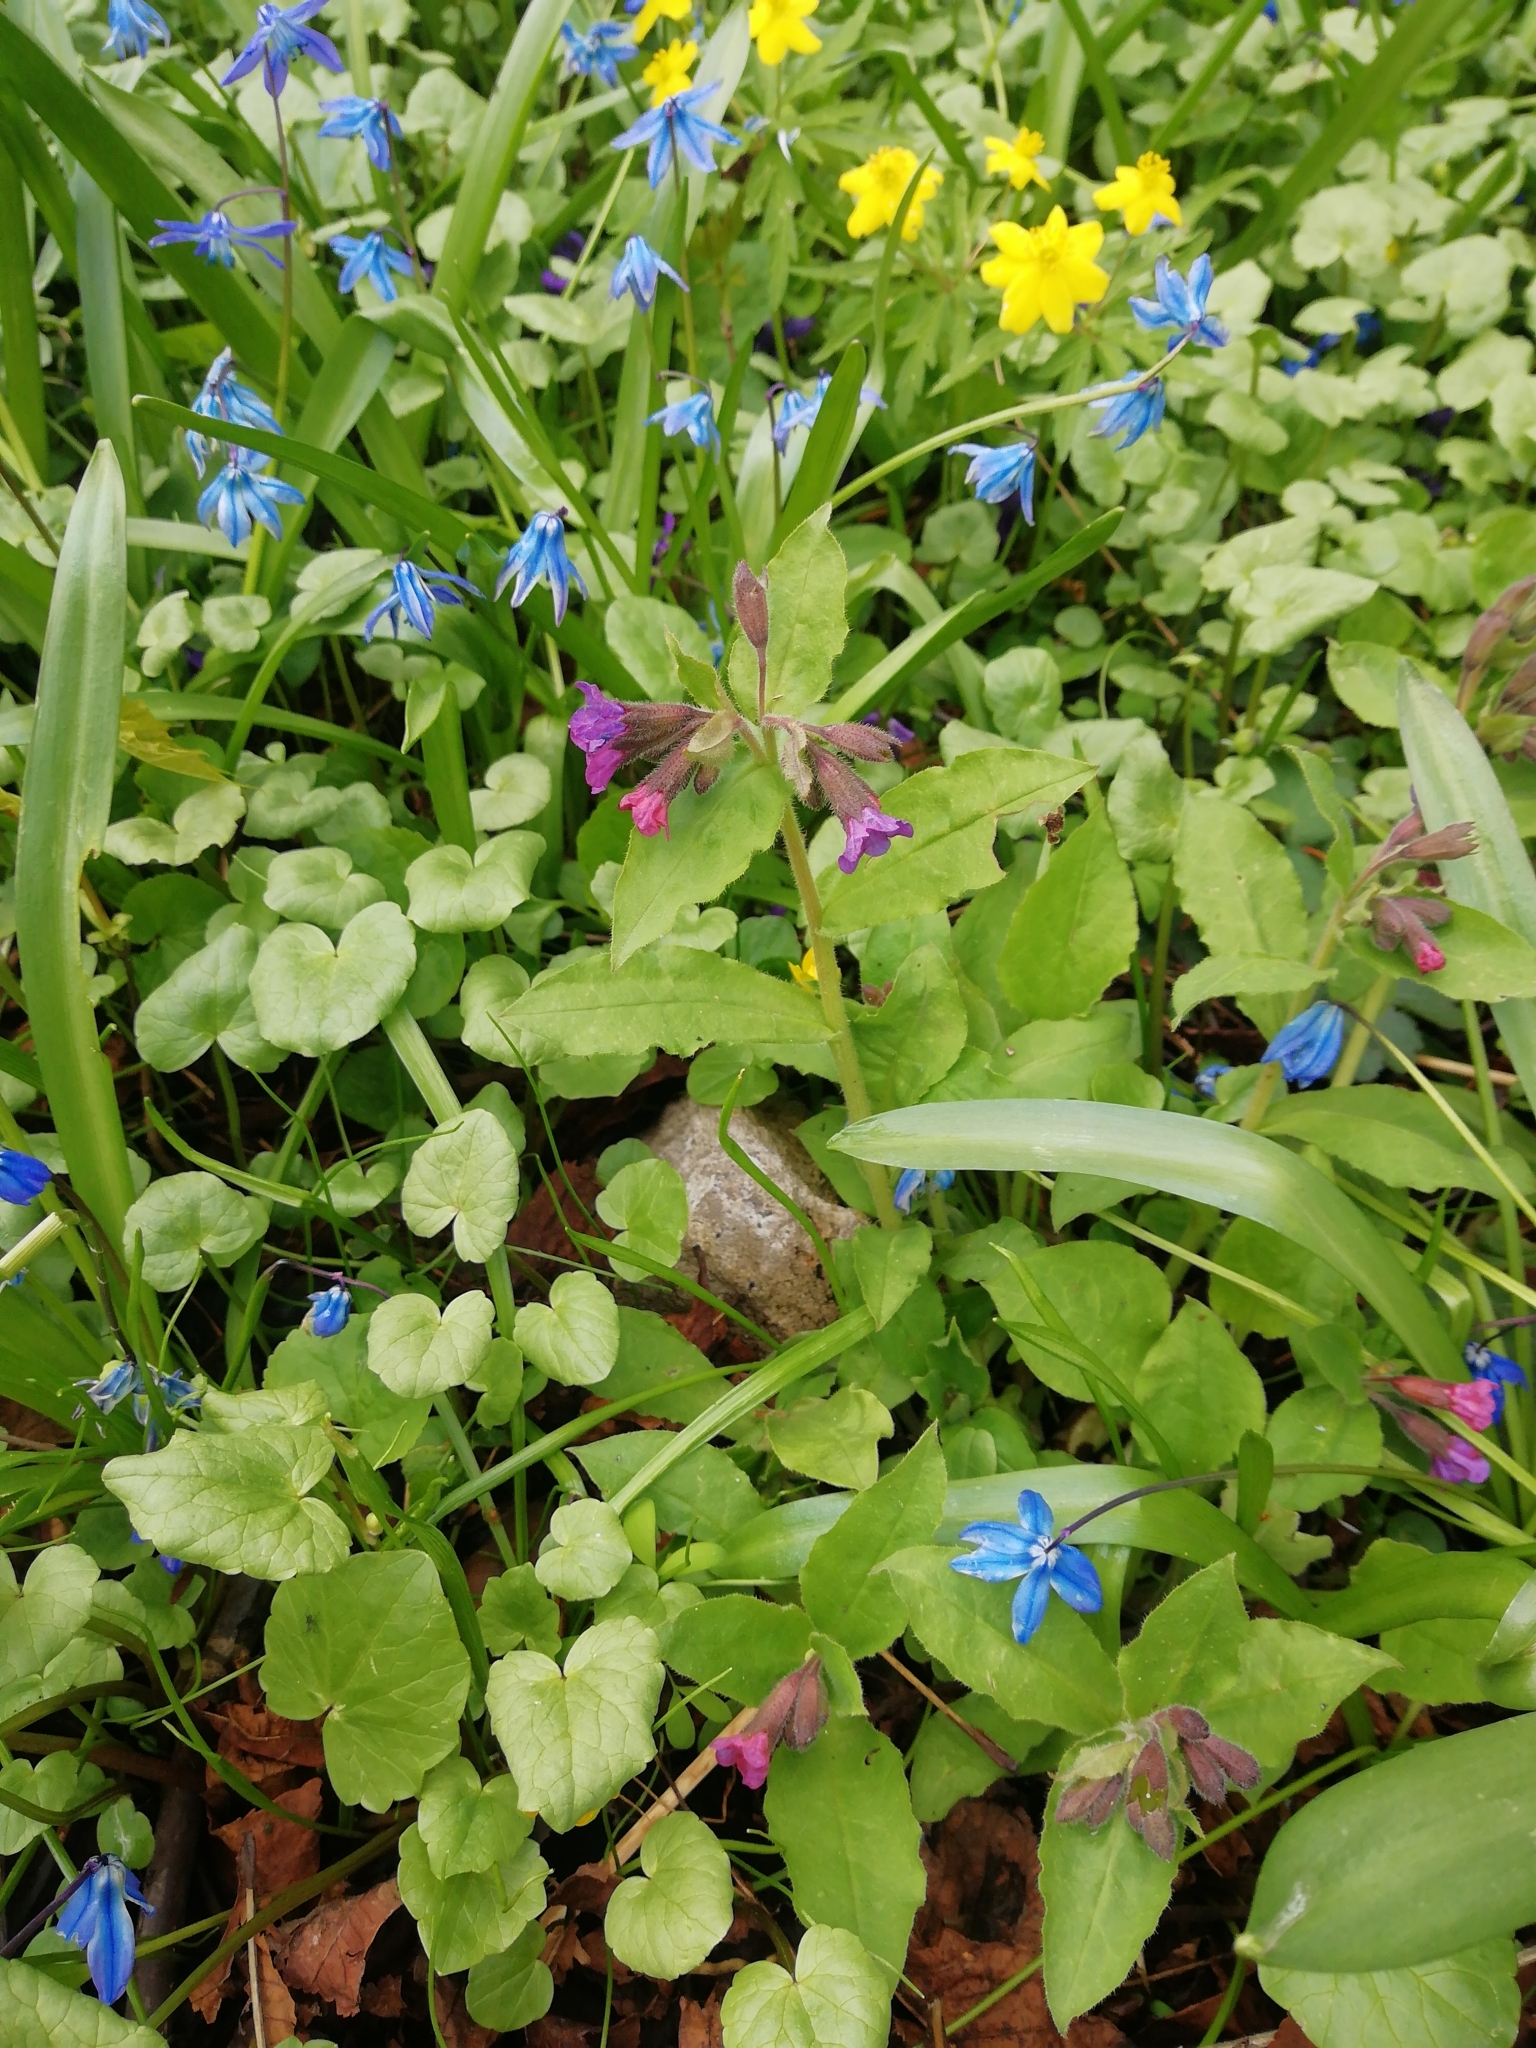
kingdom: Plantae
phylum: Tracheophyta
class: Magnoliopsida
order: Boraginales
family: Boraginaceae
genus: Pulmonaria
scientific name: Pulmonaria obscura
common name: Suffolk lungwort
